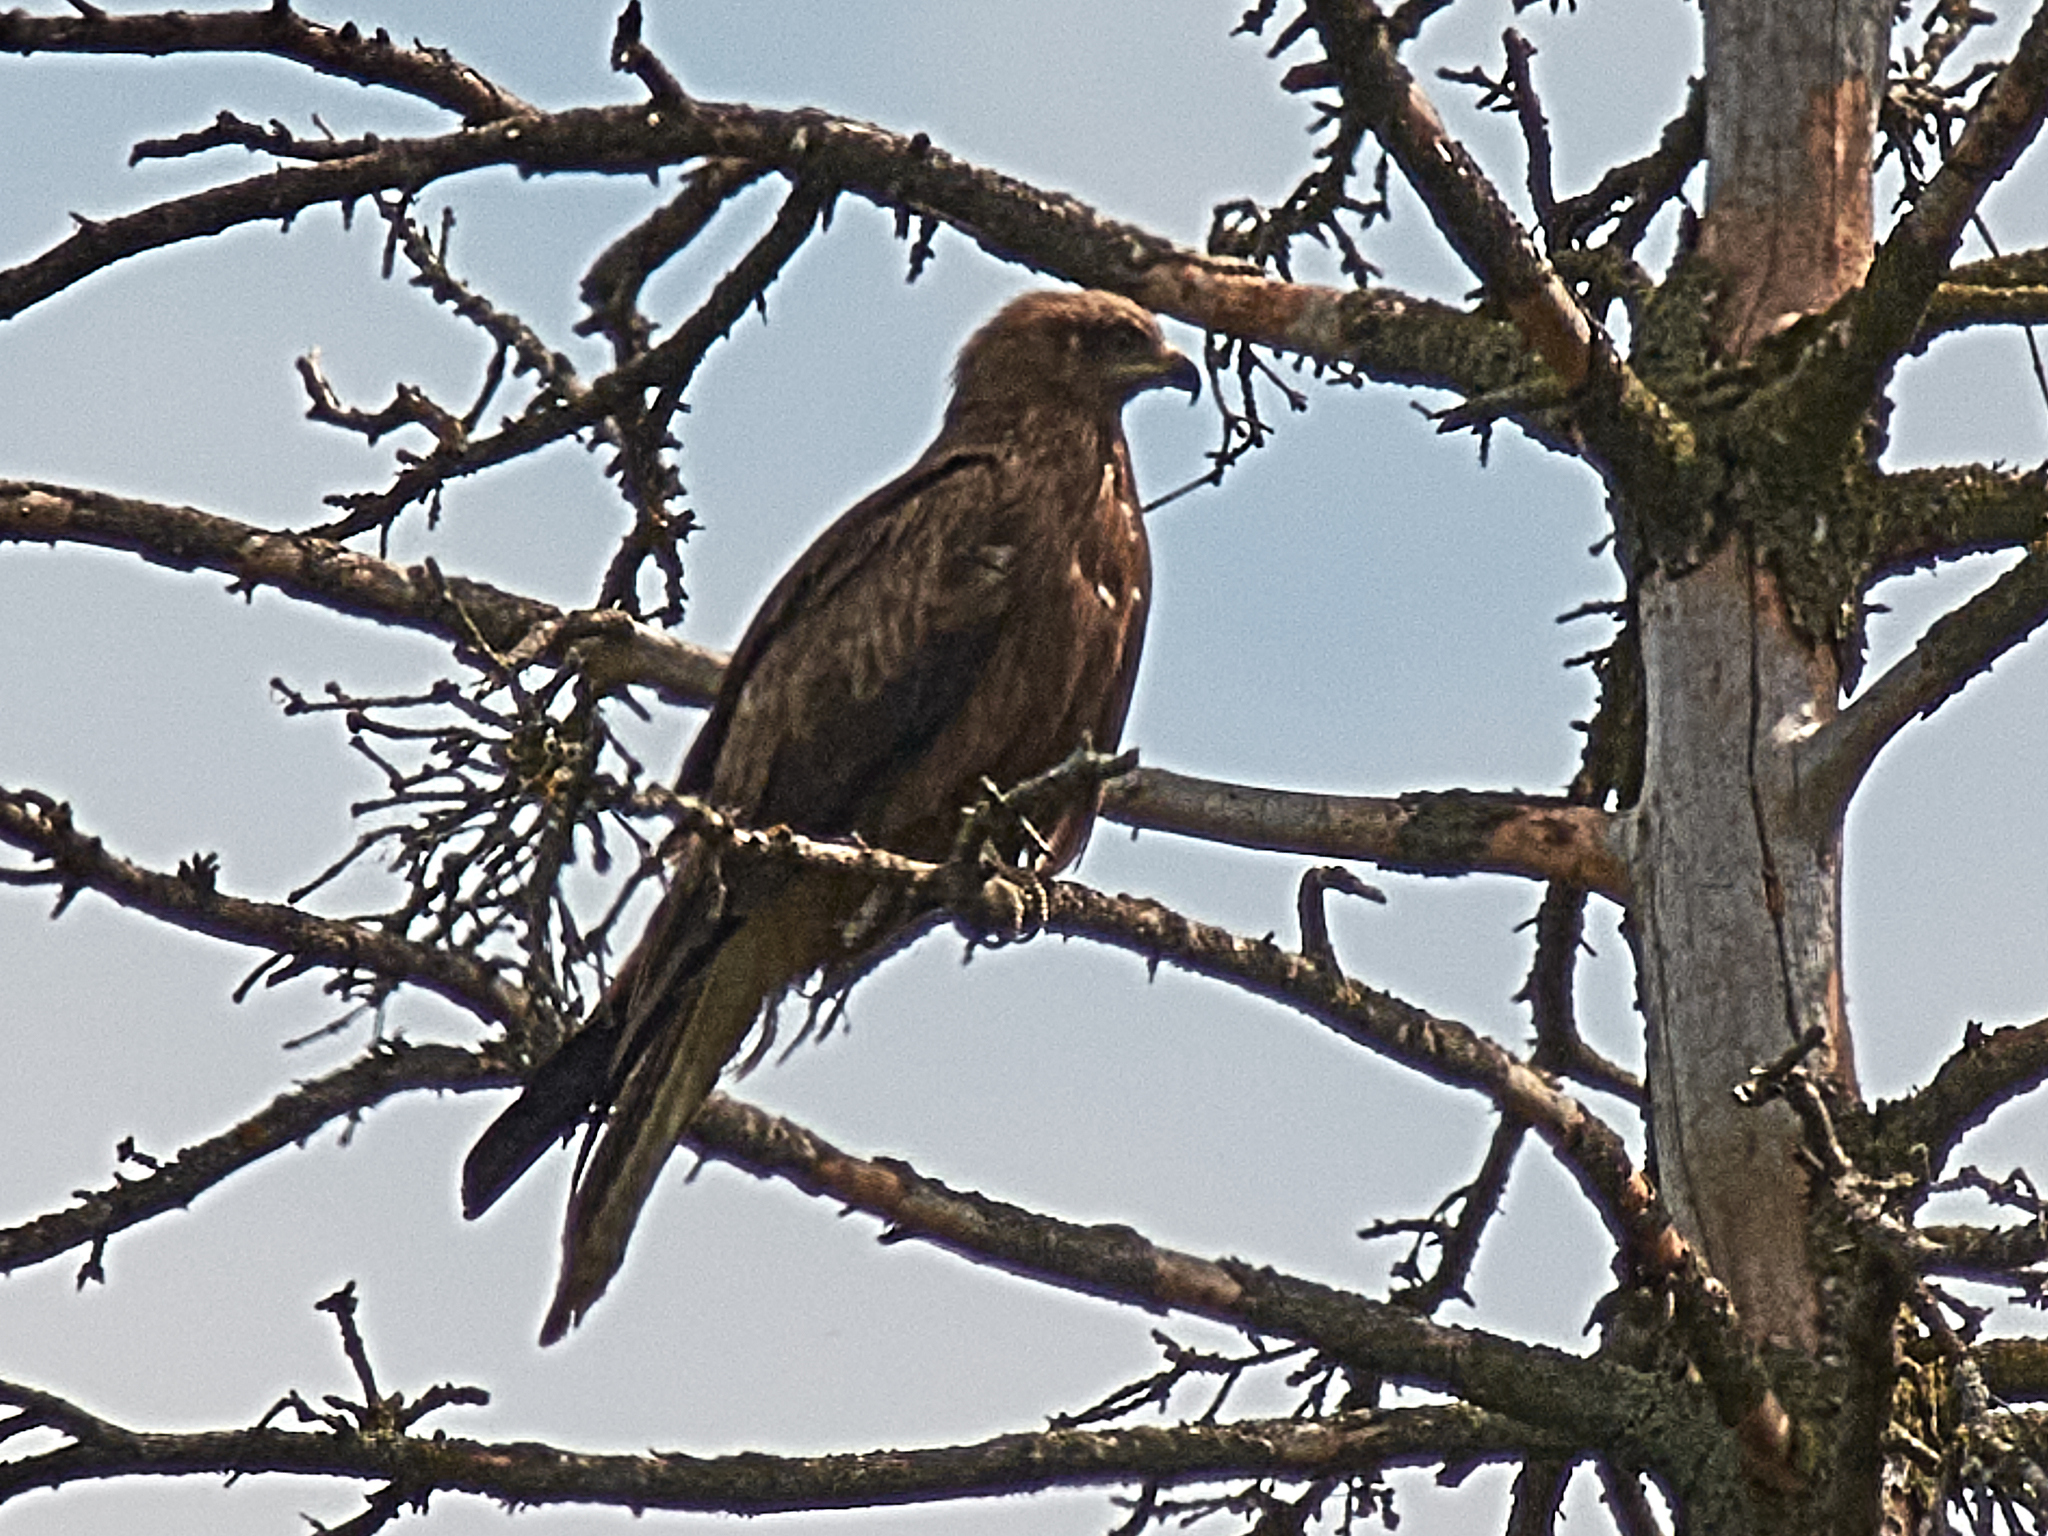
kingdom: Animalia
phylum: Chordata
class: Aves
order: Accipitriformes
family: Accipitridae
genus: Milvus
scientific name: Milvus migrans
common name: Black kite
